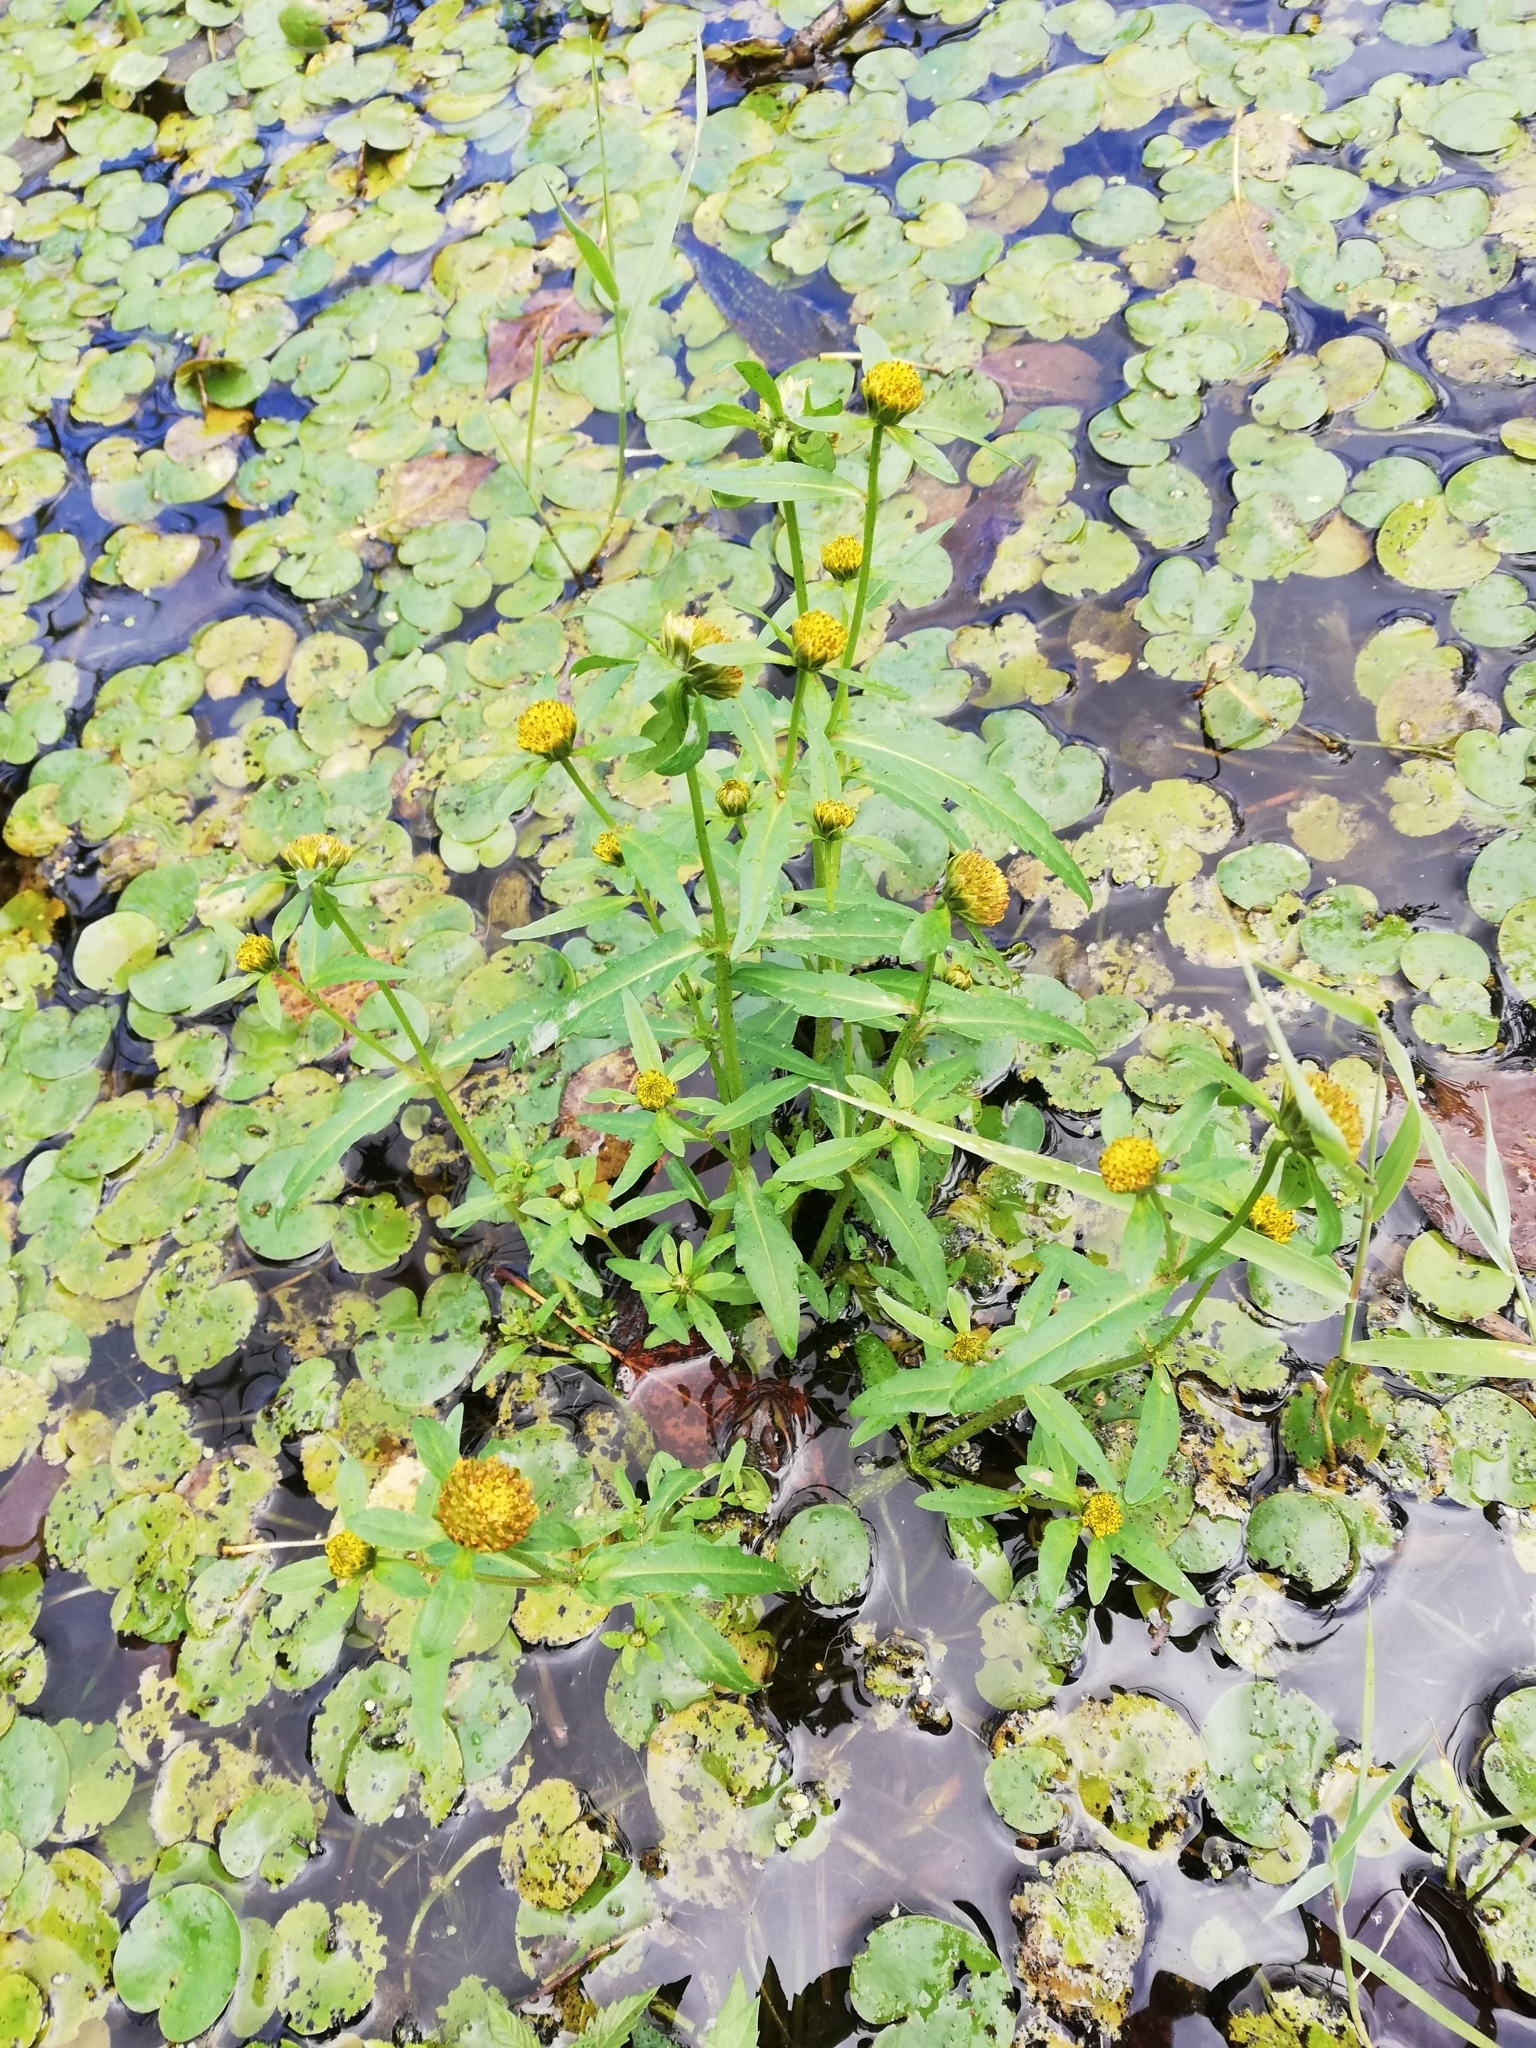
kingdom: Plantae
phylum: Tracheophyta
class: Magnoliopsida
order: Asterales
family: Asteraceae
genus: Bidens
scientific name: Bidens cernua
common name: Nodding bur-marigold
